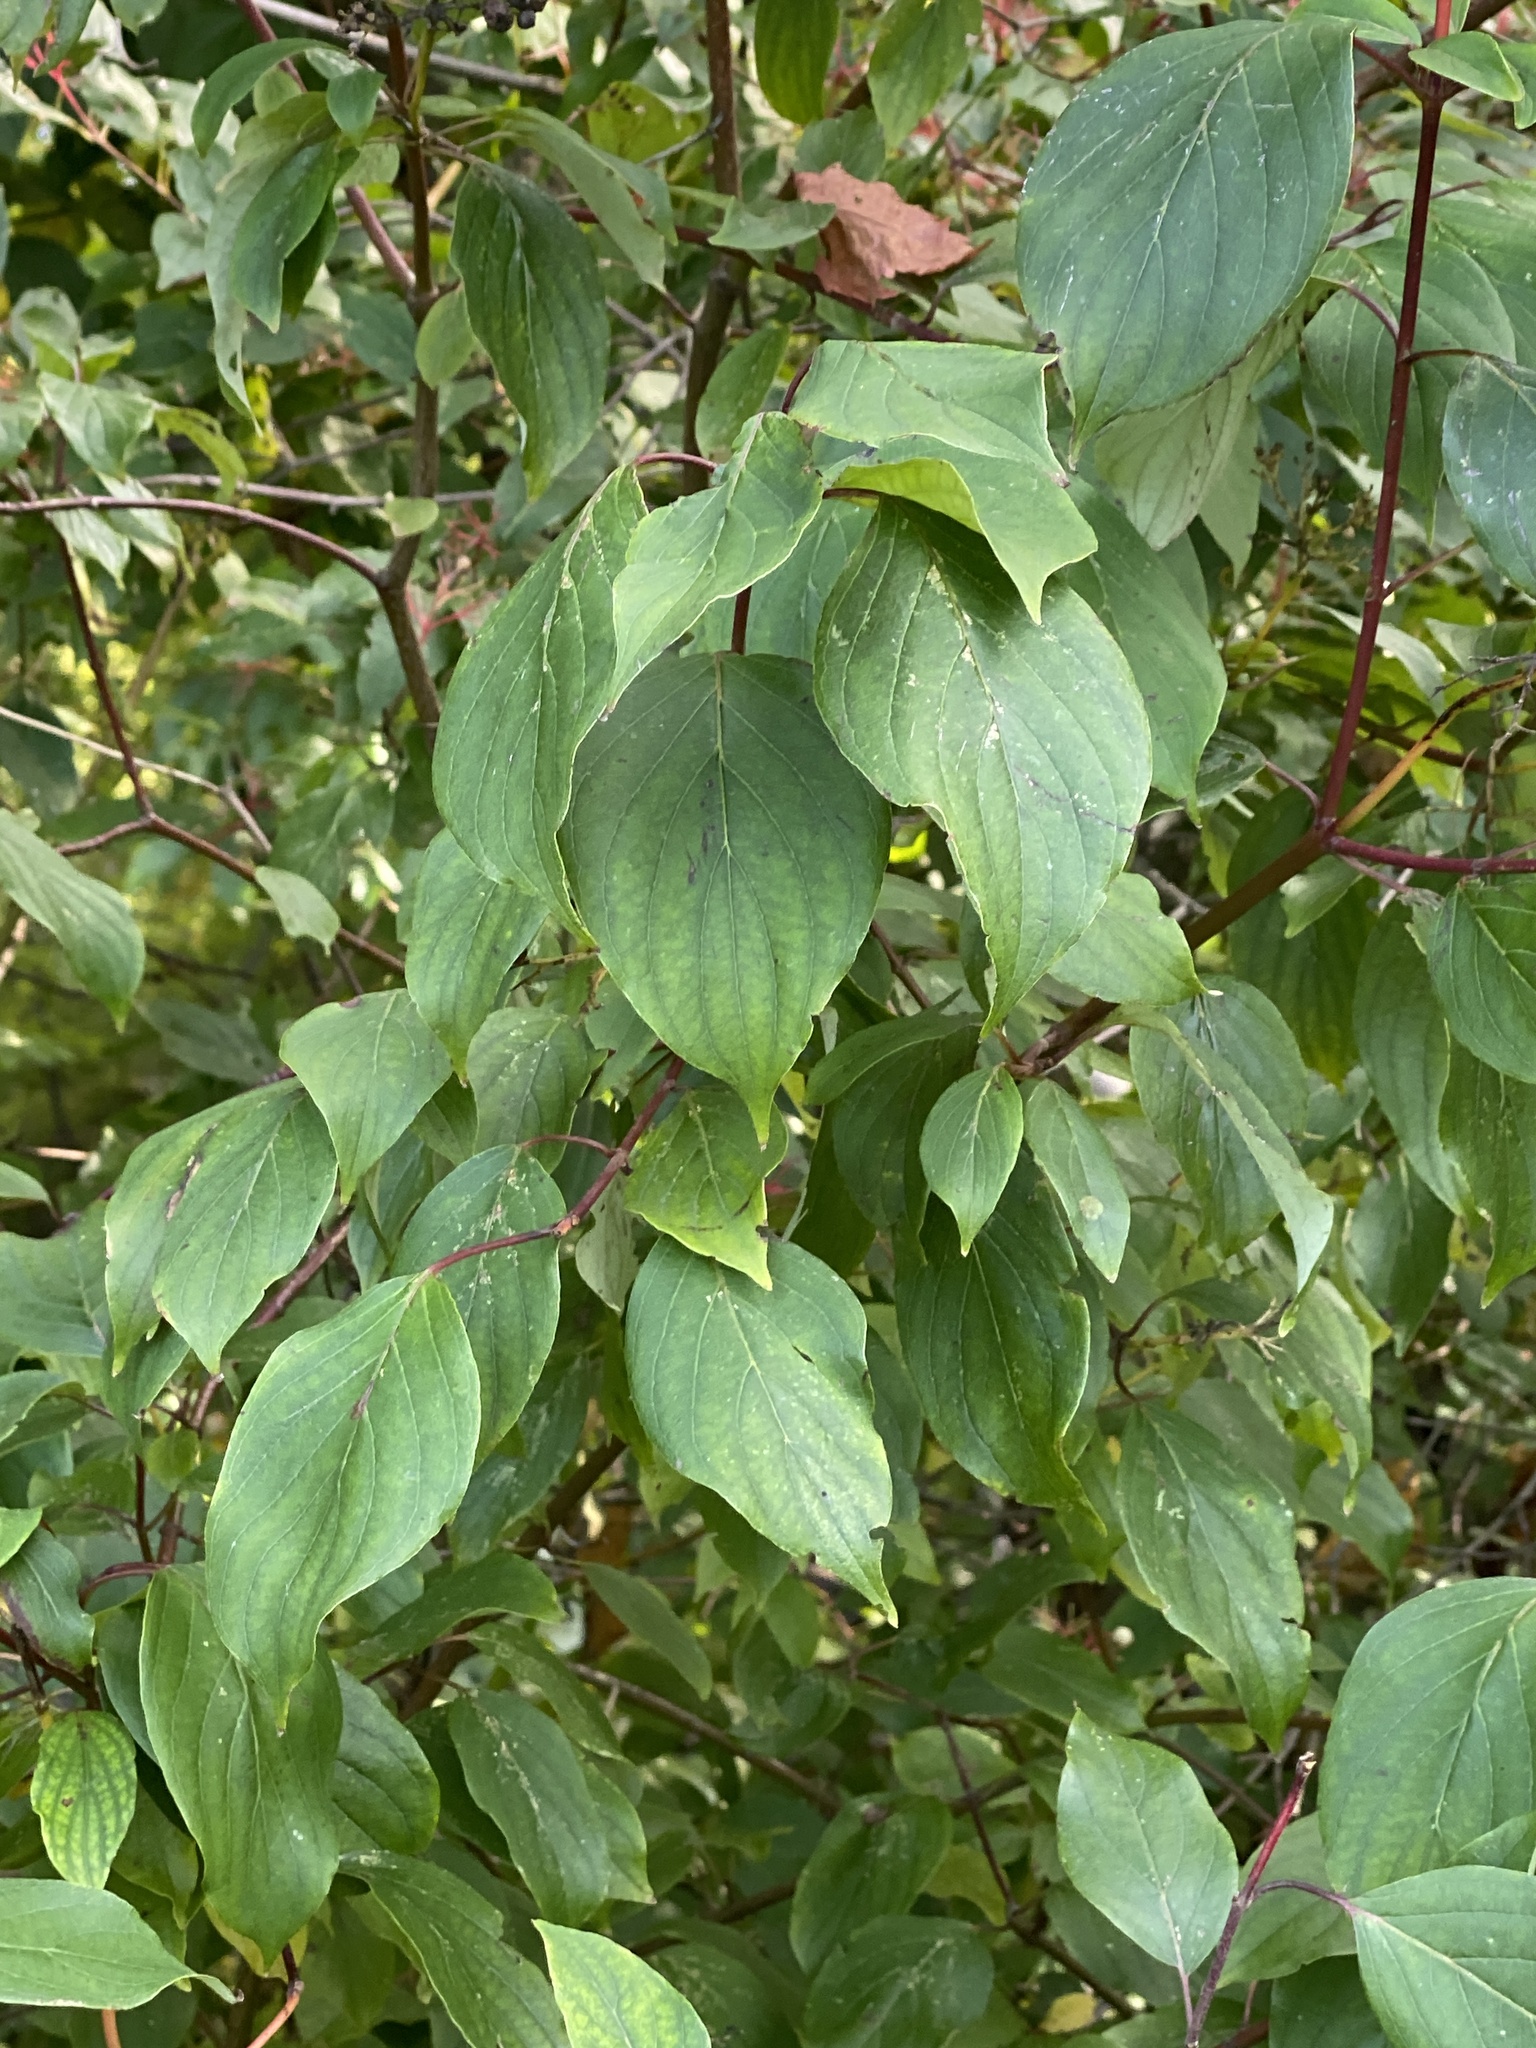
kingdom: Plantae
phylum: Tracheophyta
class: Magnoliopsida
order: Cornales
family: Cornaceae
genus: Cornus
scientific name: Cornus amomum
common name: Silky dogwood
